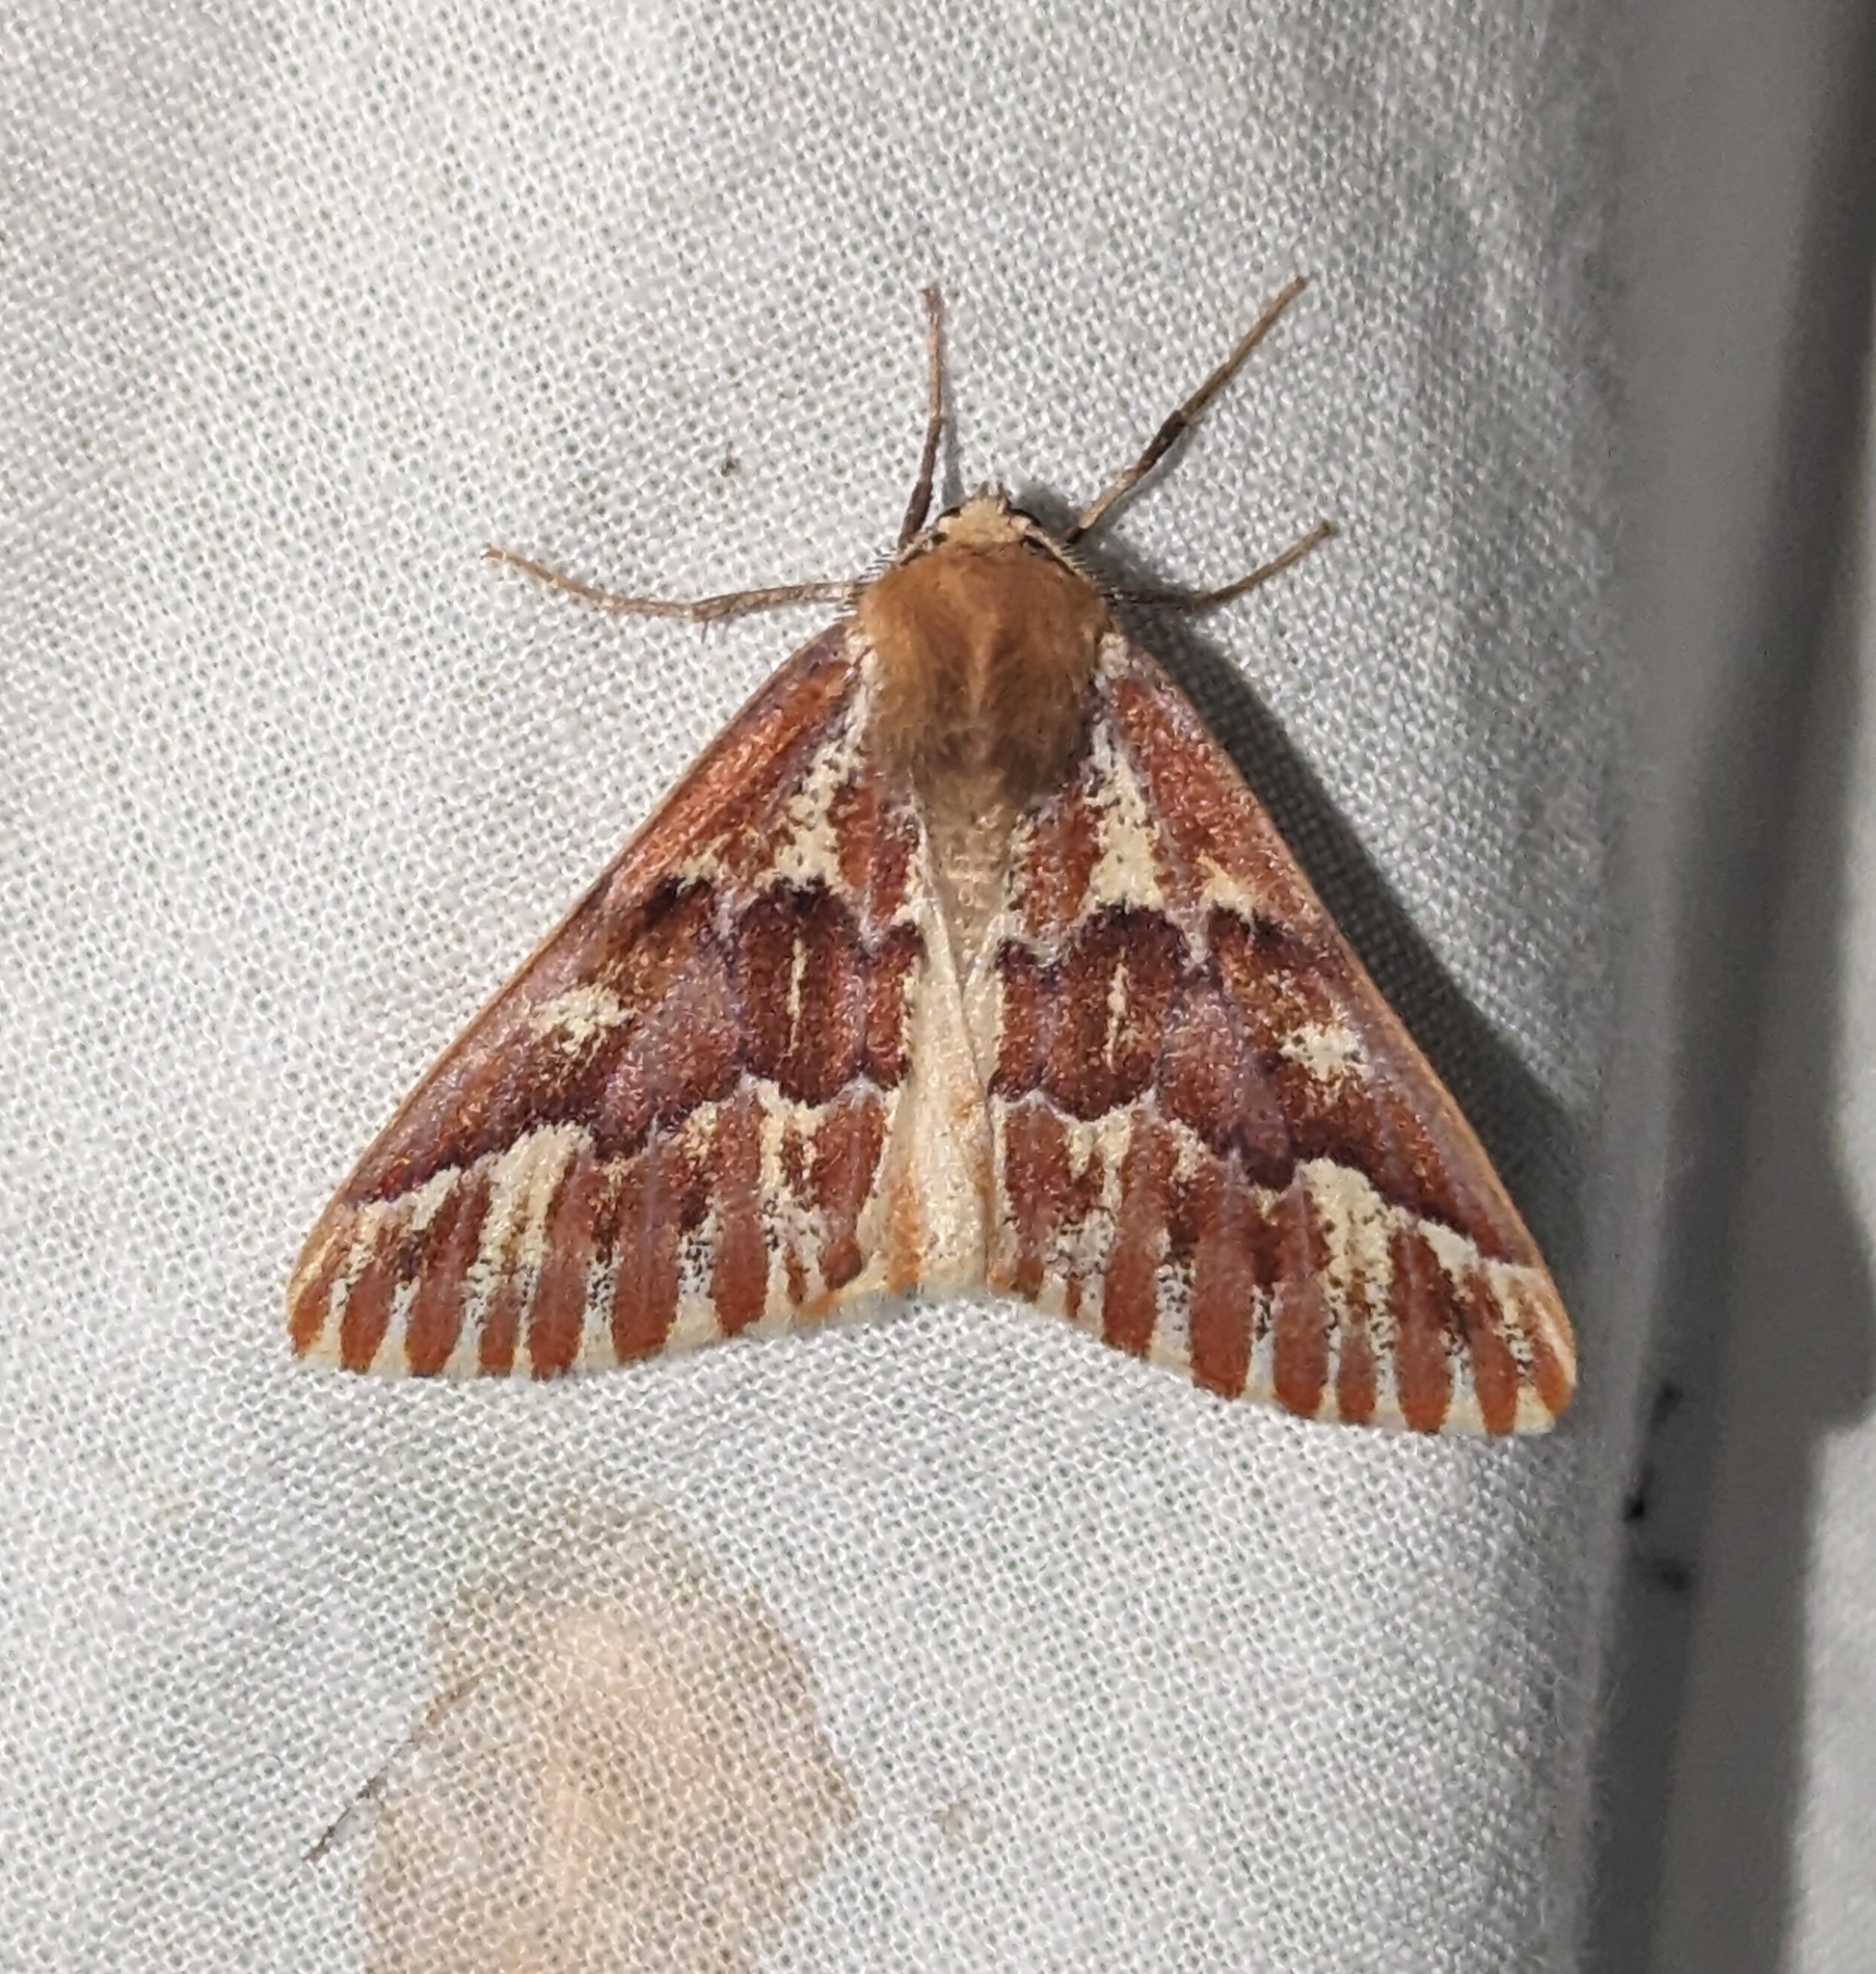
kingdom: Animalia
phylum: Arthropoda
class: Insecta
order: Lepidoptera
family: Geometridae
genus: Caripeta
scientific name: Caripeta aequaliaria
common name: Red girdle moth
